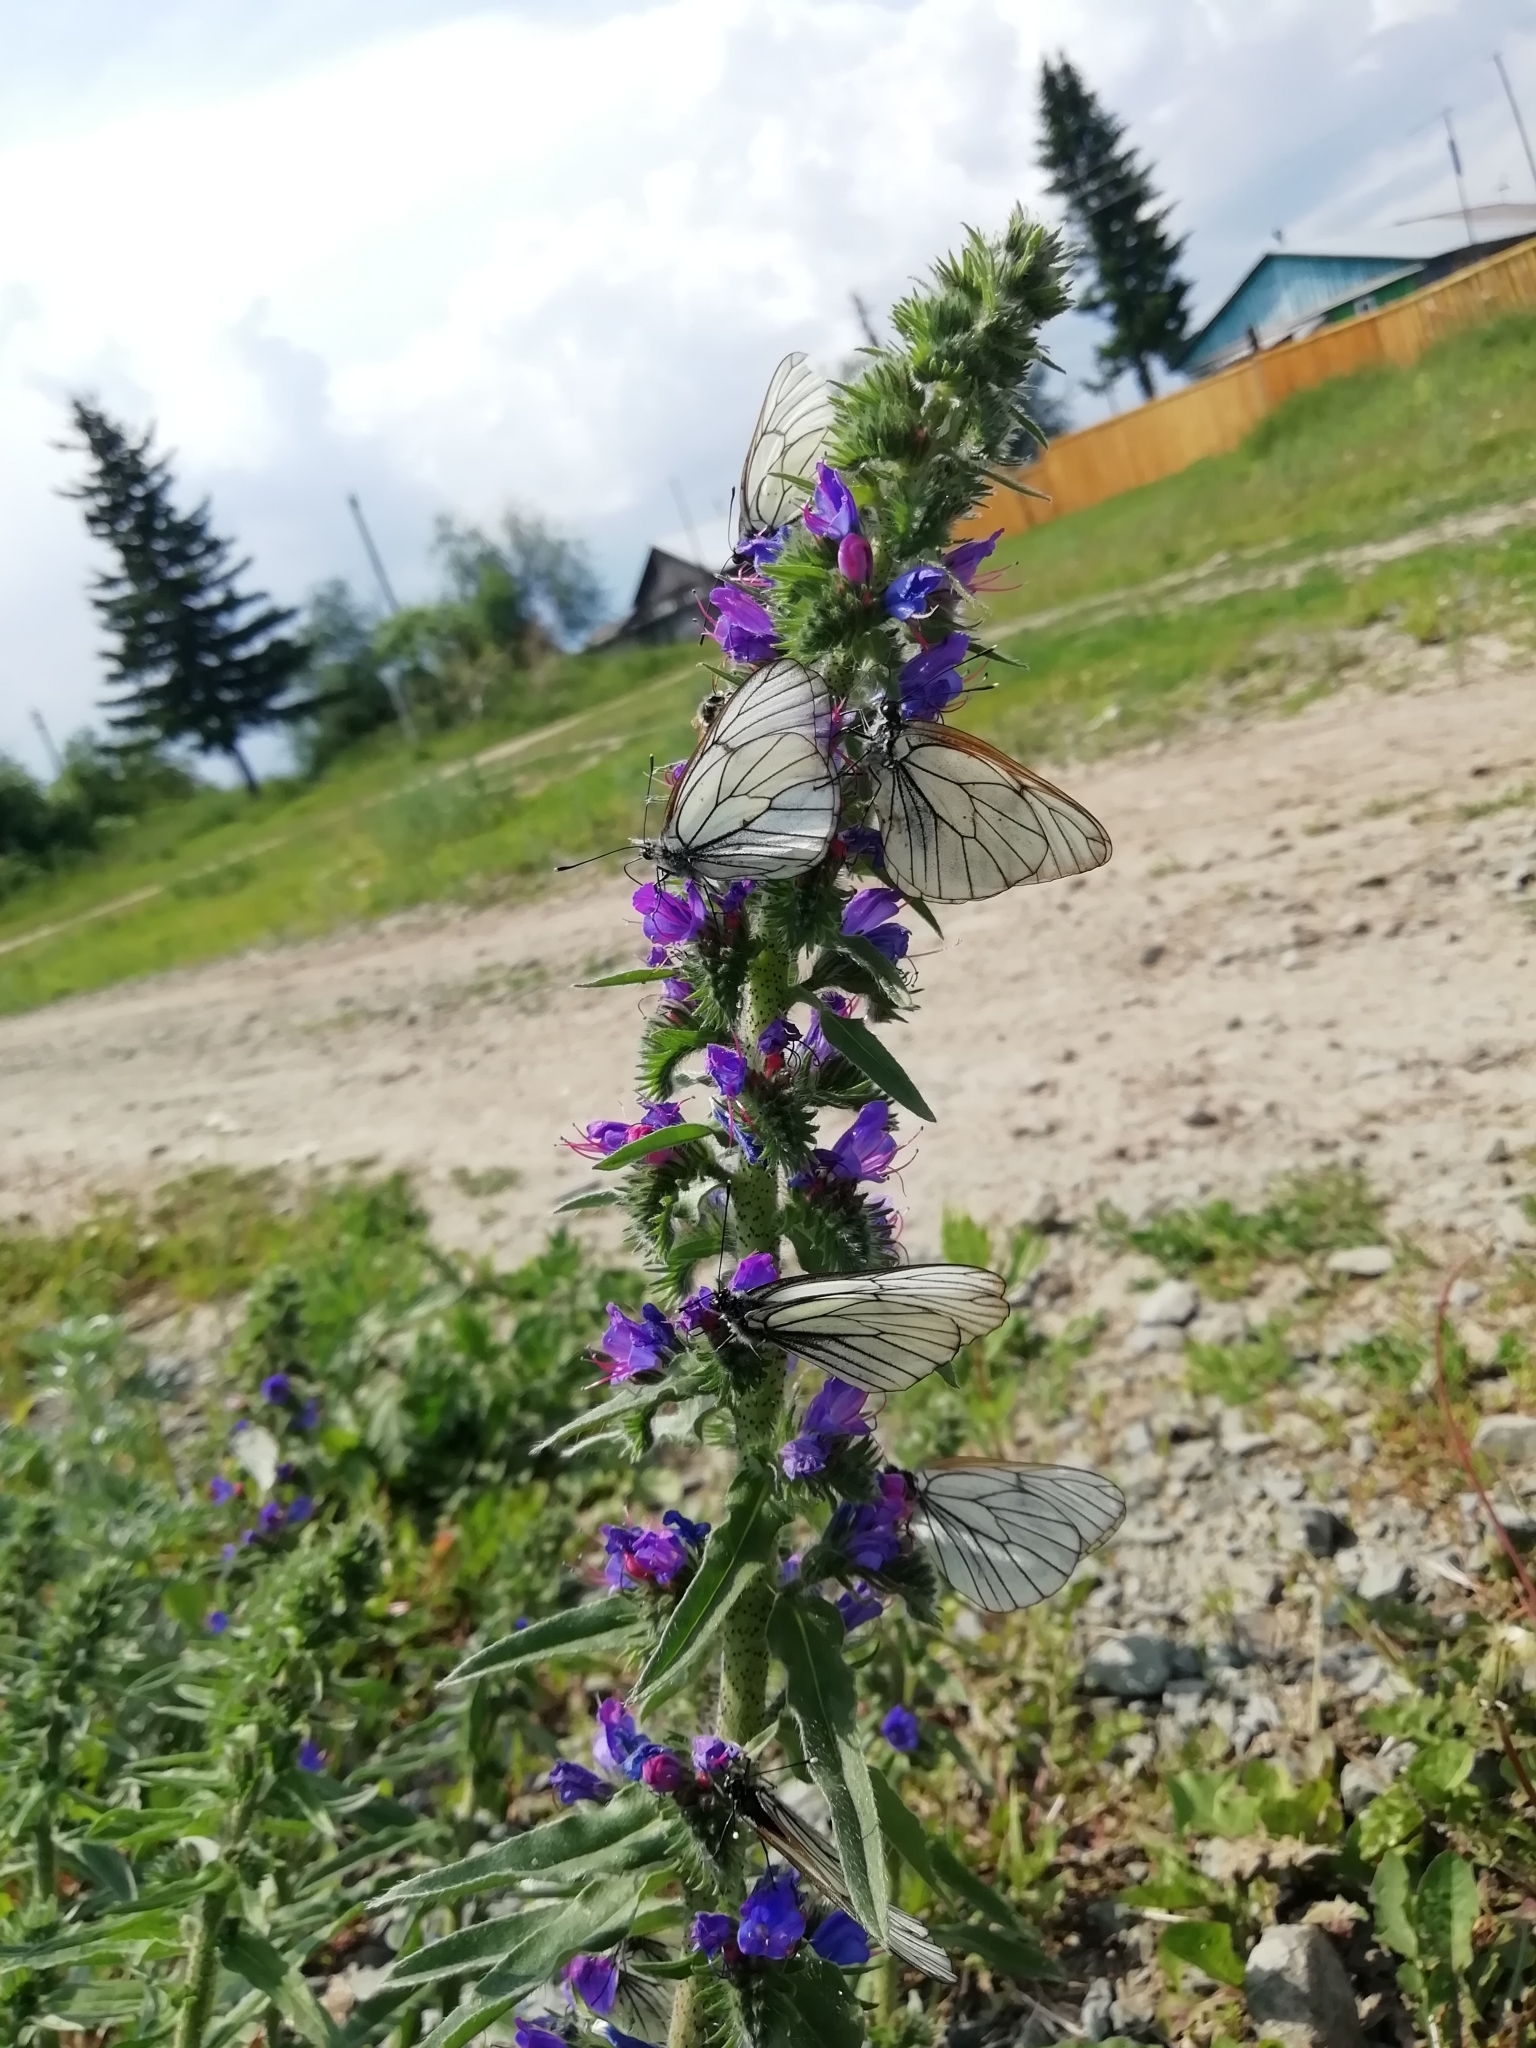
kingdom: Animalia
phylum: Arthropoda
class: Insecta
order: Lepidoptera
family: Pieridae
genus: Aporia
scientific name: Aporia crataegi
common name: Black-veined white
